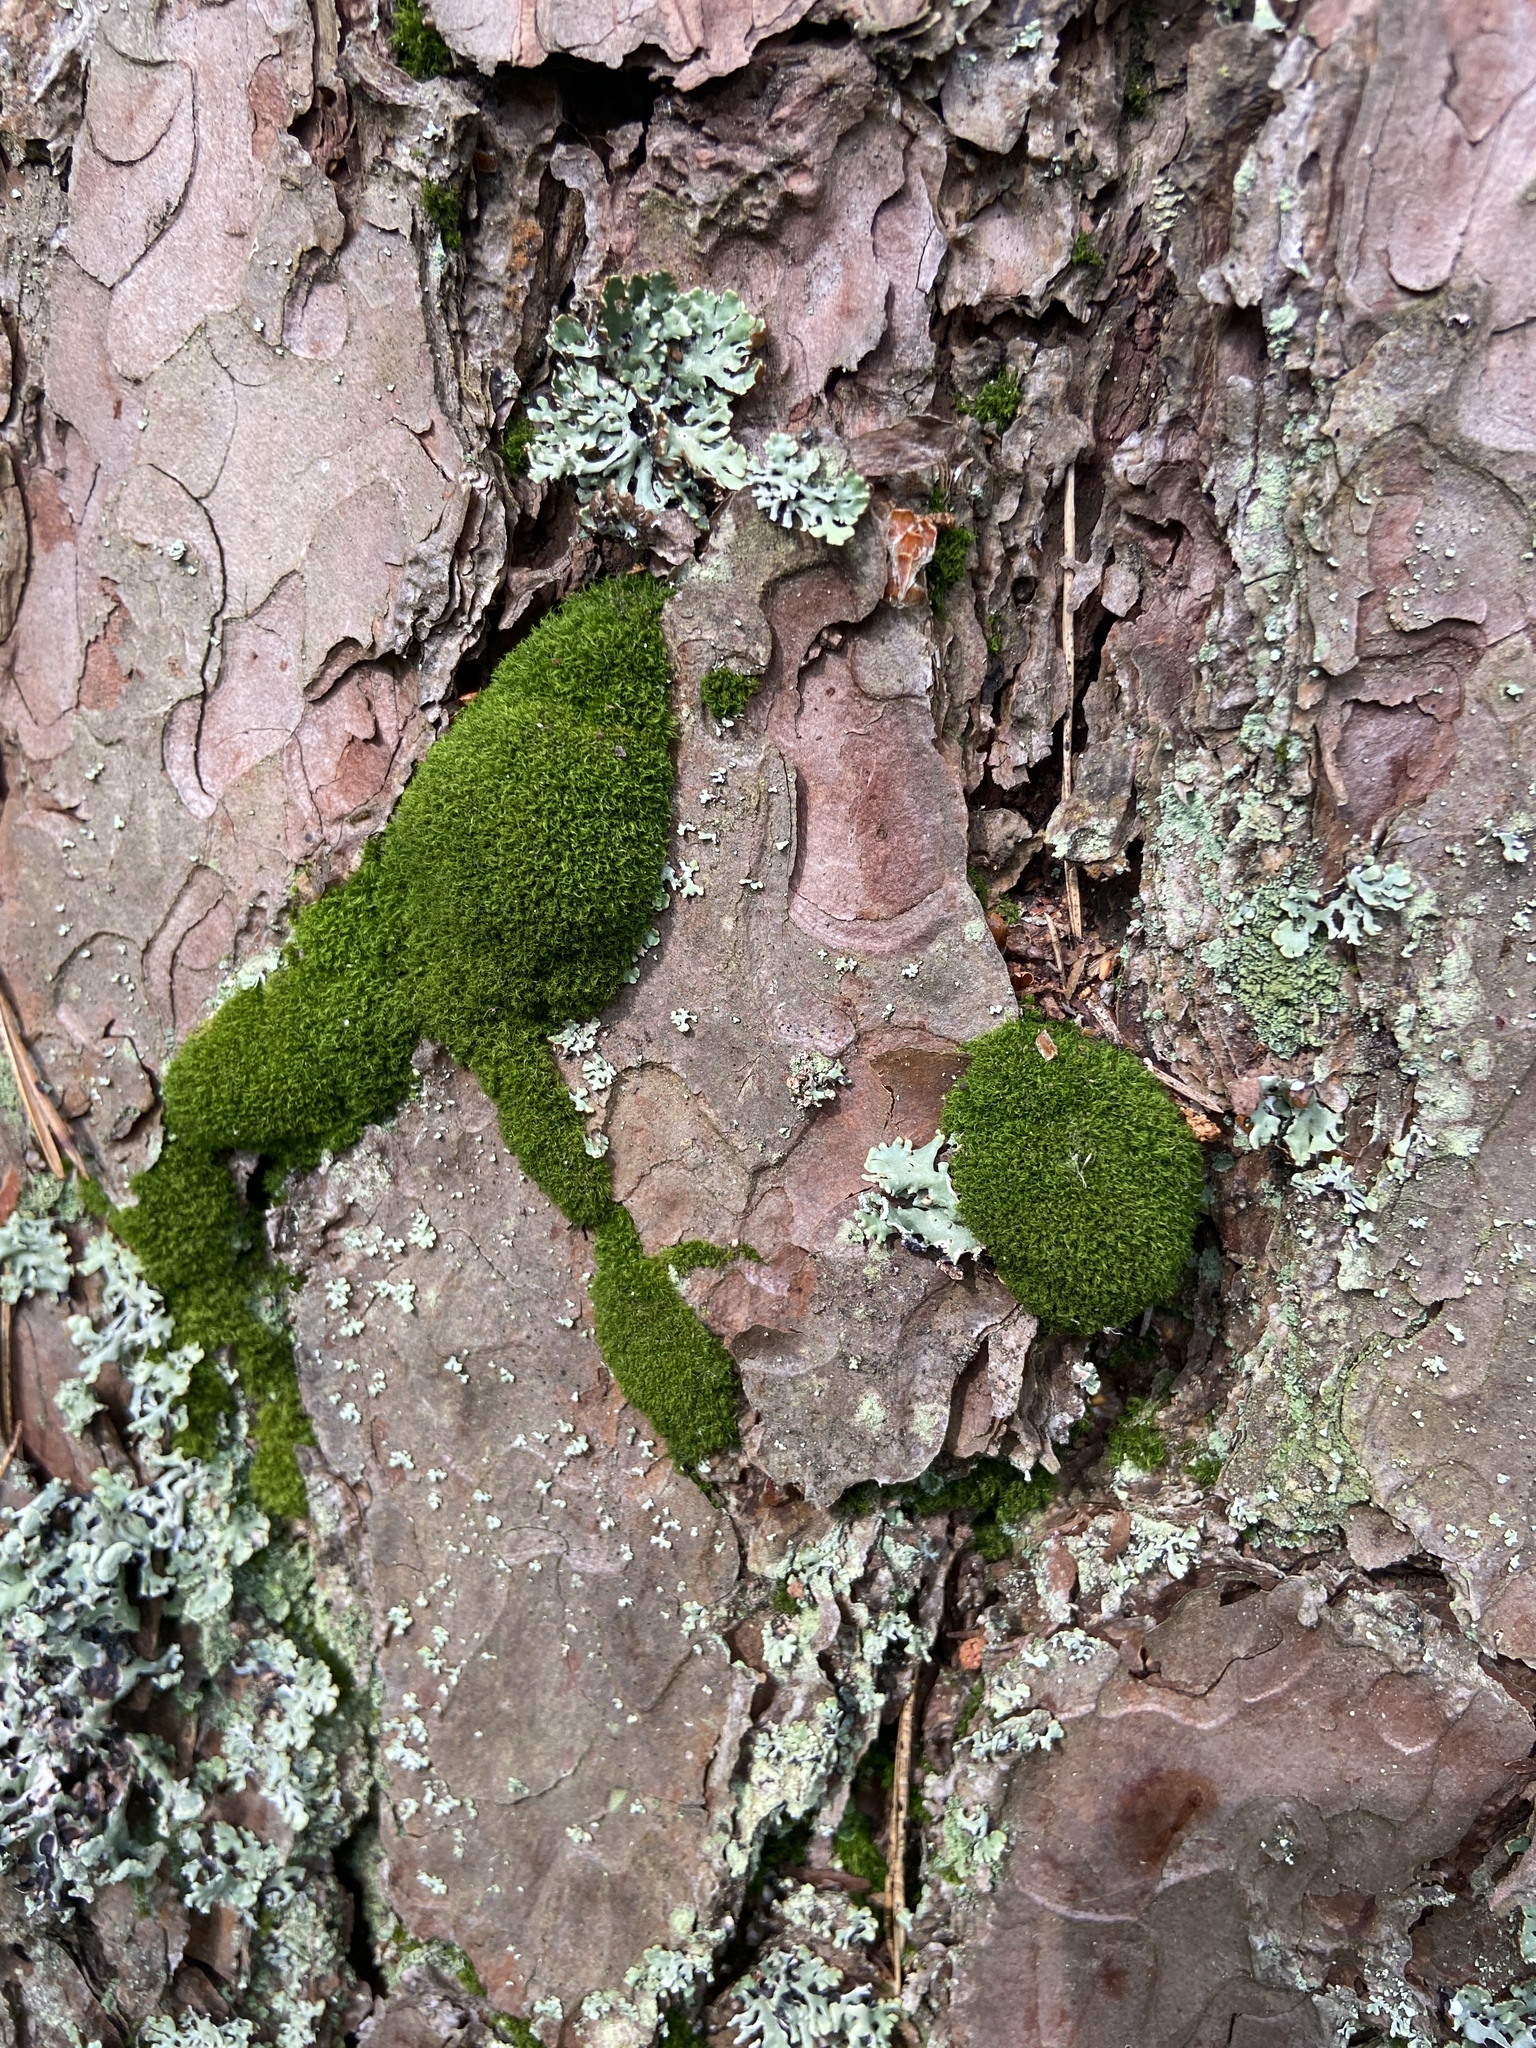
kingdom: Plantae
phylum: Bryophyta
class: Bryopsida
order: Dicranales
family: Dicranaceae
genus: Orthodicranum
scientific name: Orthodicranum montanum
